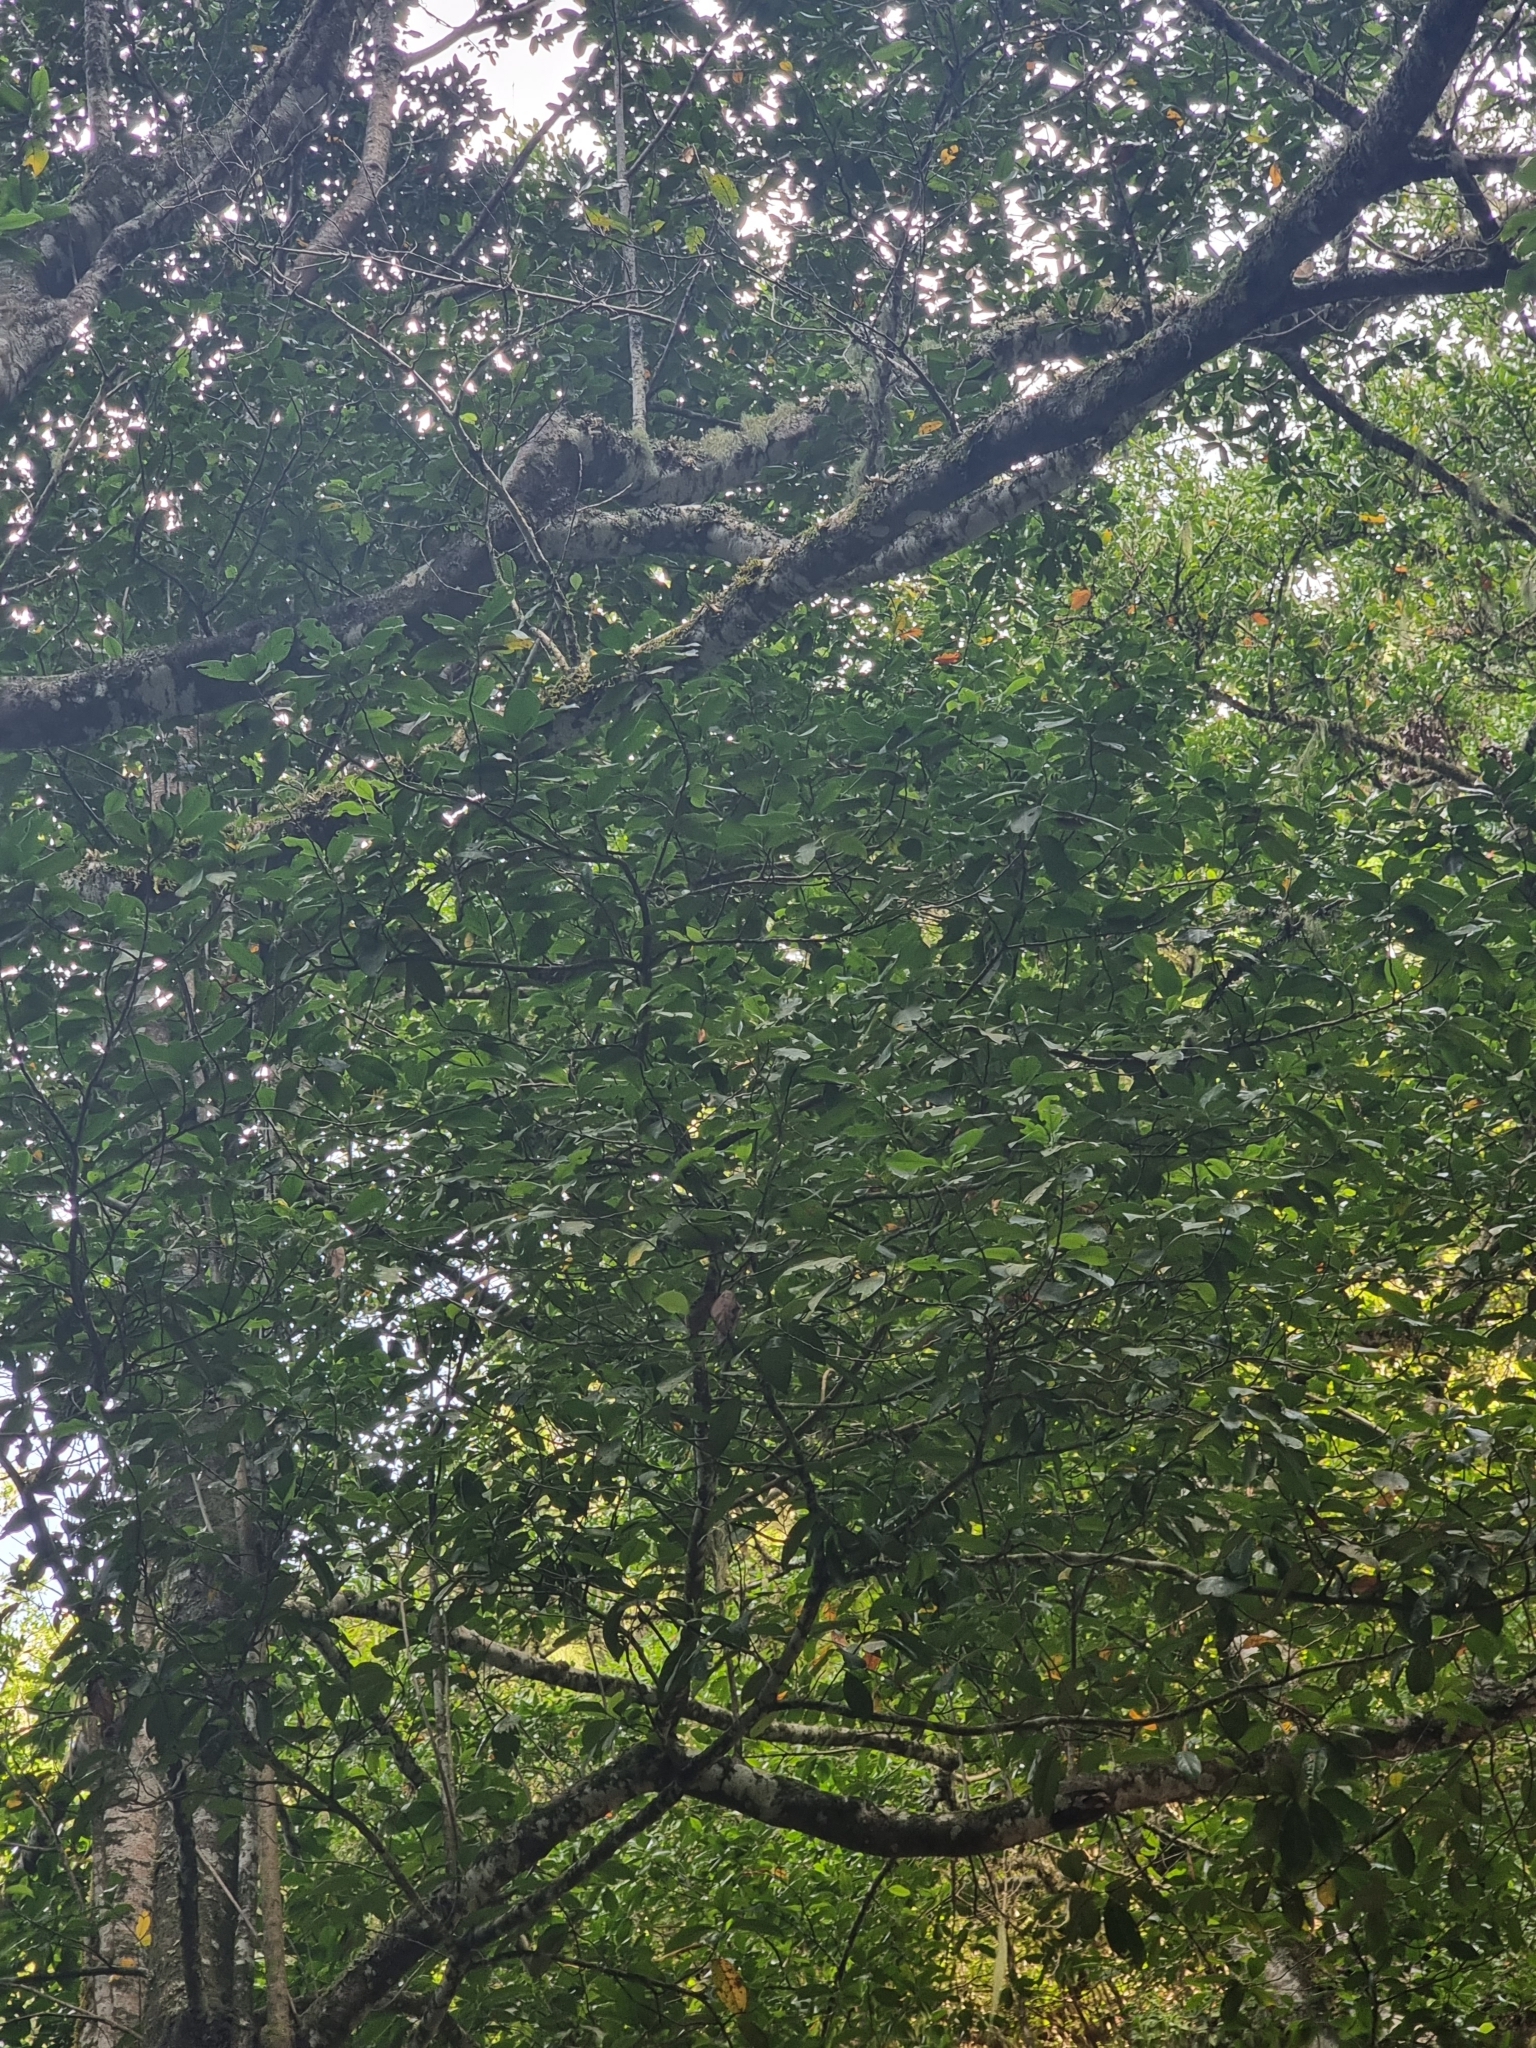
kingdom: Plantae
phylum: Tracheophyta
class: Magnoliopsida
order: Laurales
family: Lauraceae
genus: Mespilodaphne
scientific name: Mespilodaphne foetens
